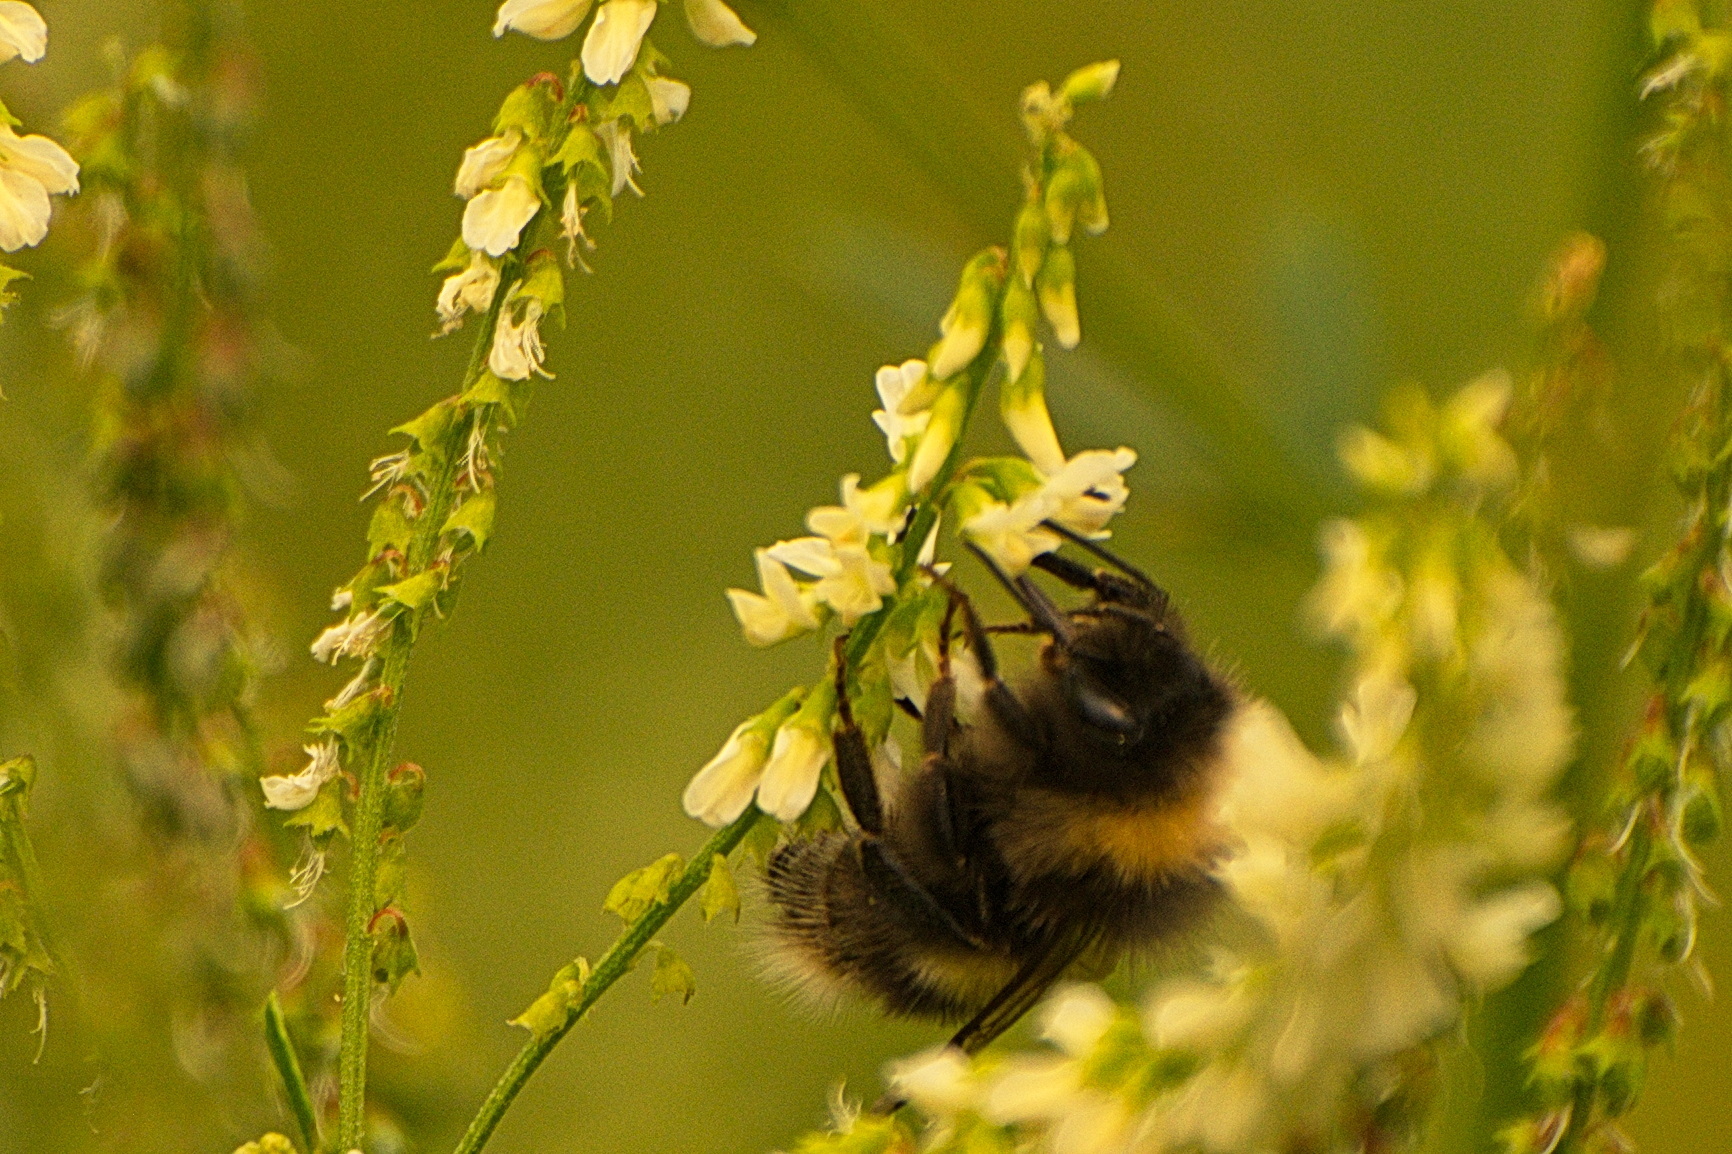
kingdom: Animalia
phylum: Arthropoda
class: Insecta
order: Hymenoptera
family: Apidae
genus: Bombus
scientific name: Bombus cryptarum
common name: Cryptic bumblebee
